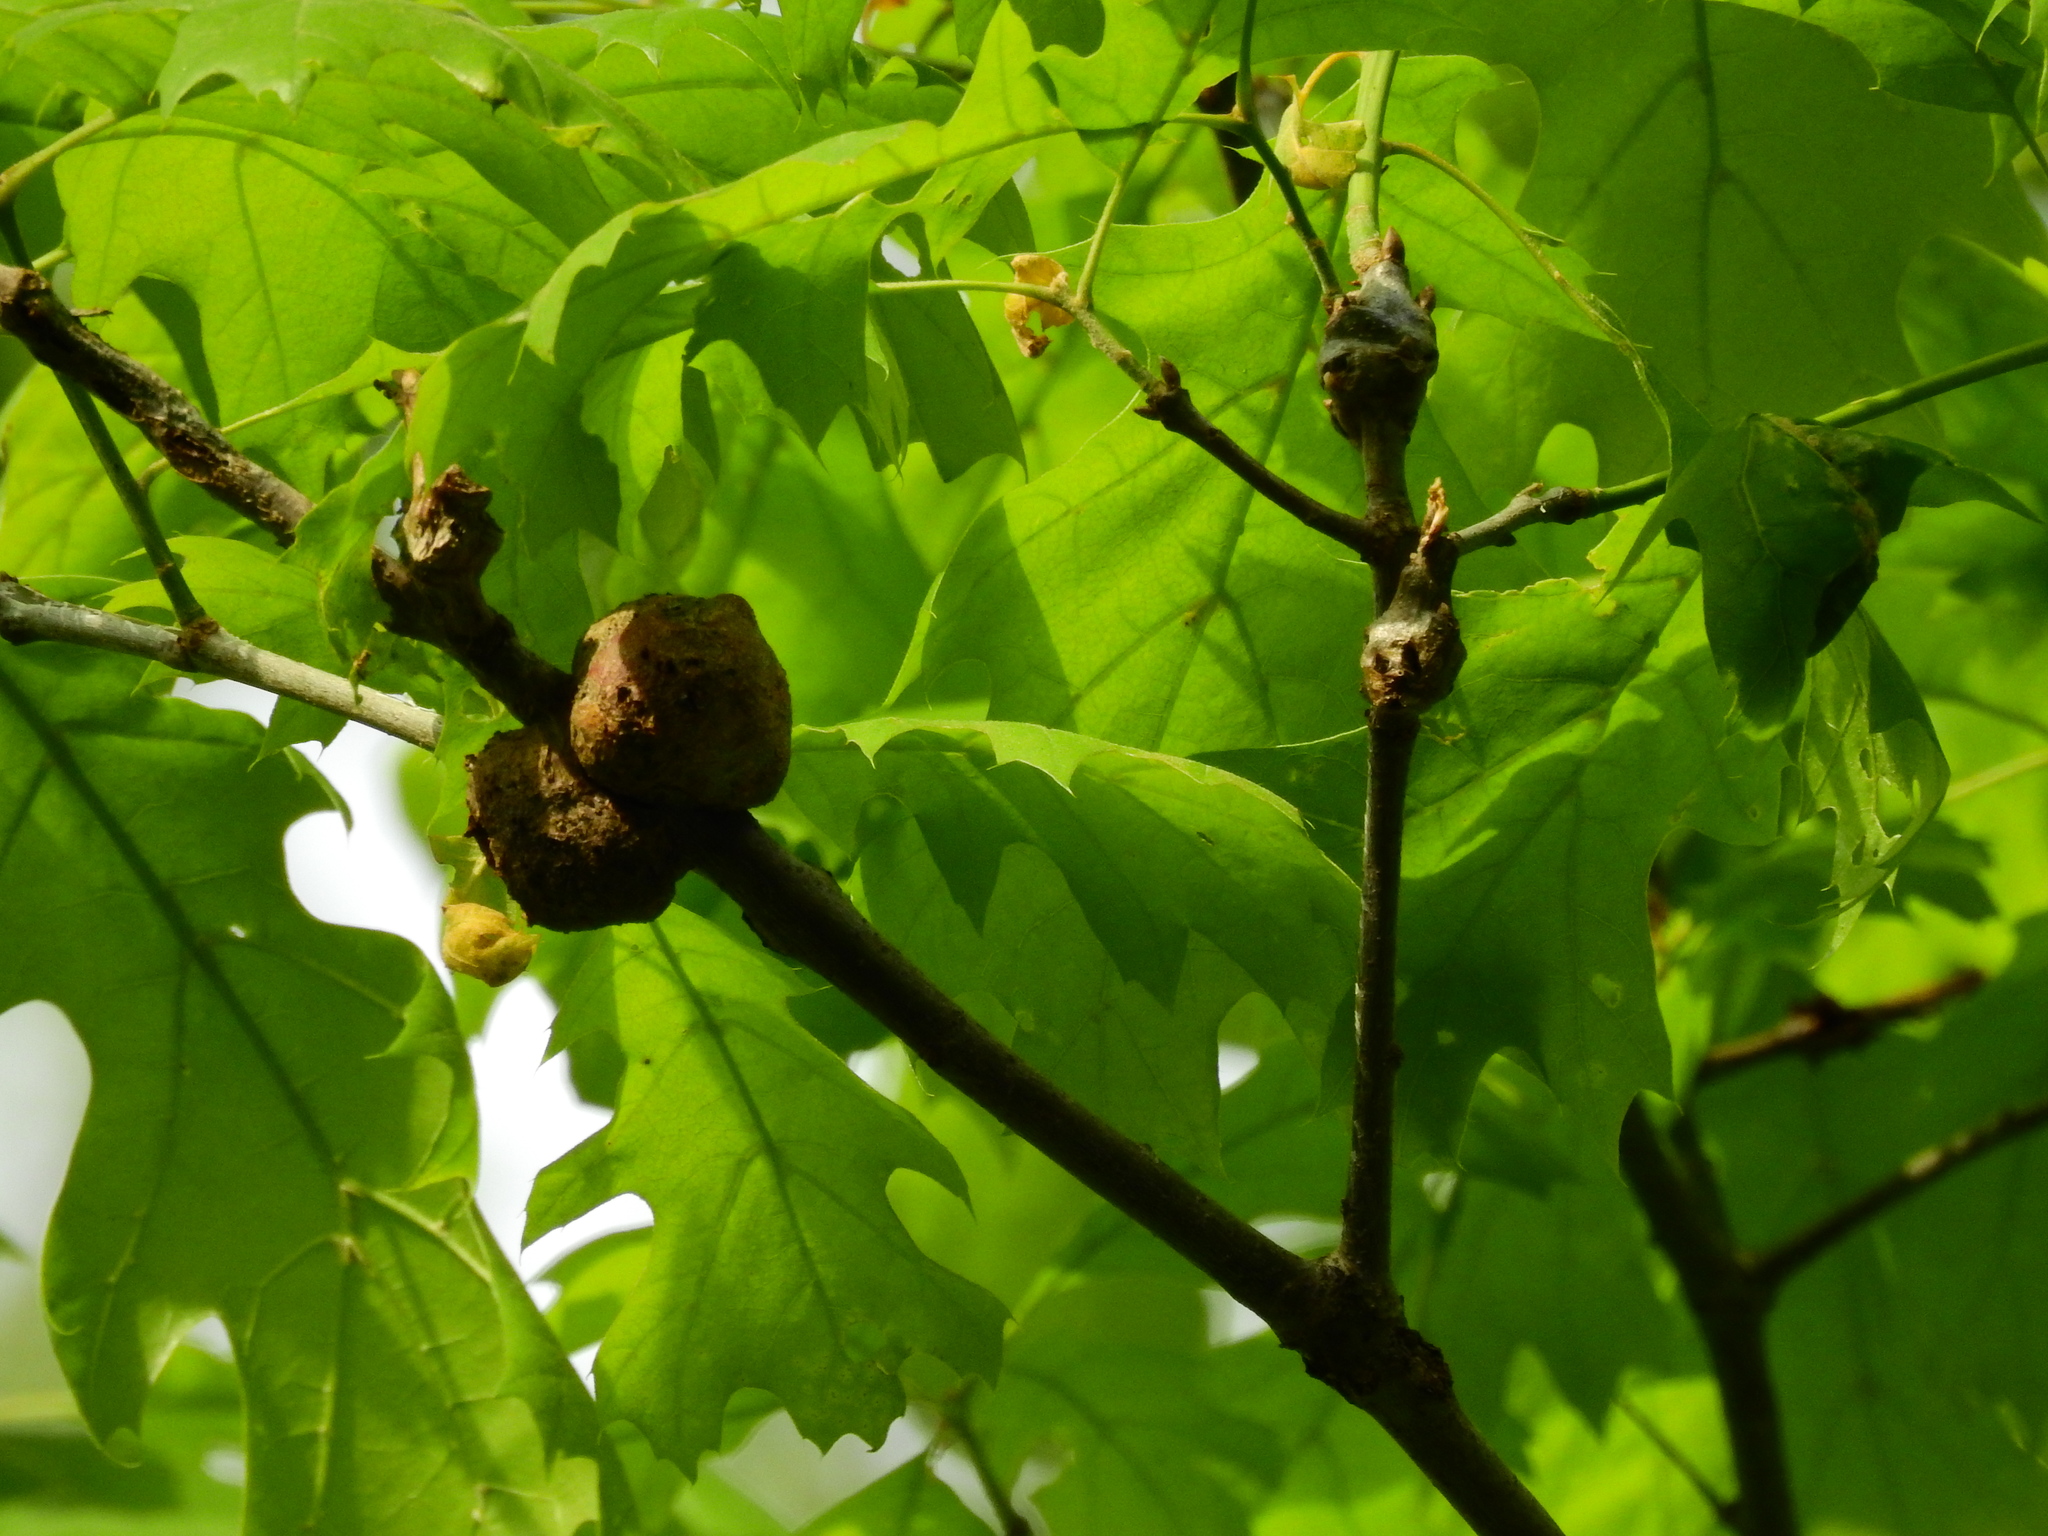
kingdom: Animalia
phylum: Arthropoda
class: Insecta
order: Hymenoptera
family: Cynipidae
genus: Zapatella
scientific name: Zapatella quercusphellos
